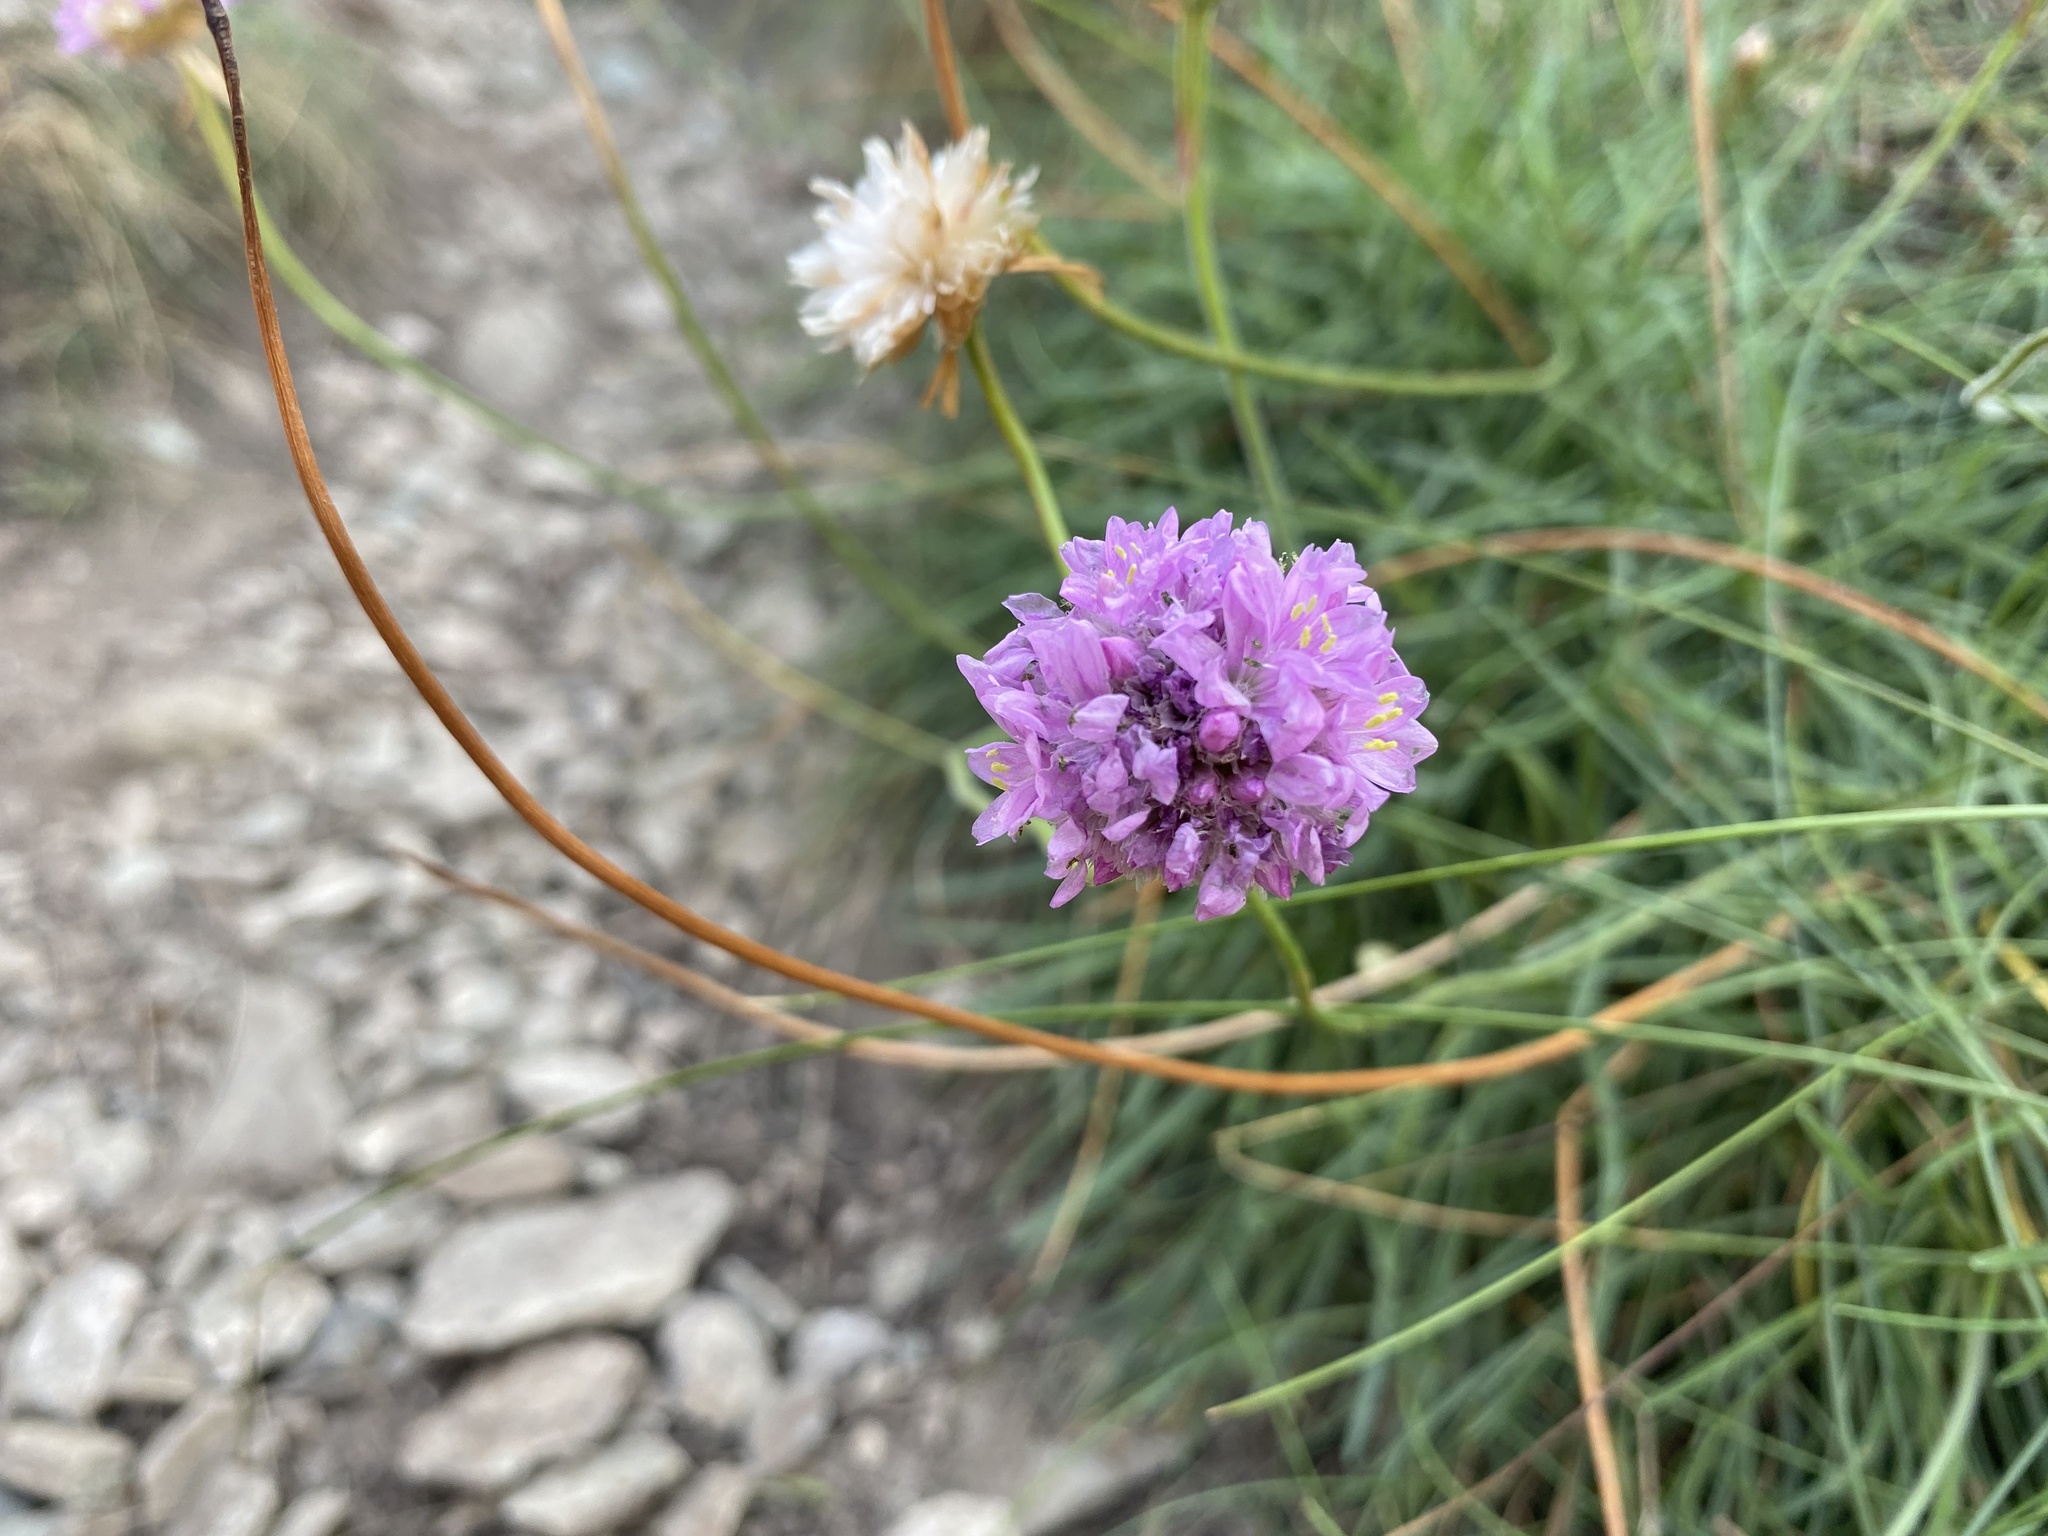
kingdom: Plantae
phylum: Tracheophyta
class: Magnoliopsida
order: Caryophyllales
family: Plumbaginaceae
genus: Armeria
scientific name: Armeria maritima
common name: Thrift
